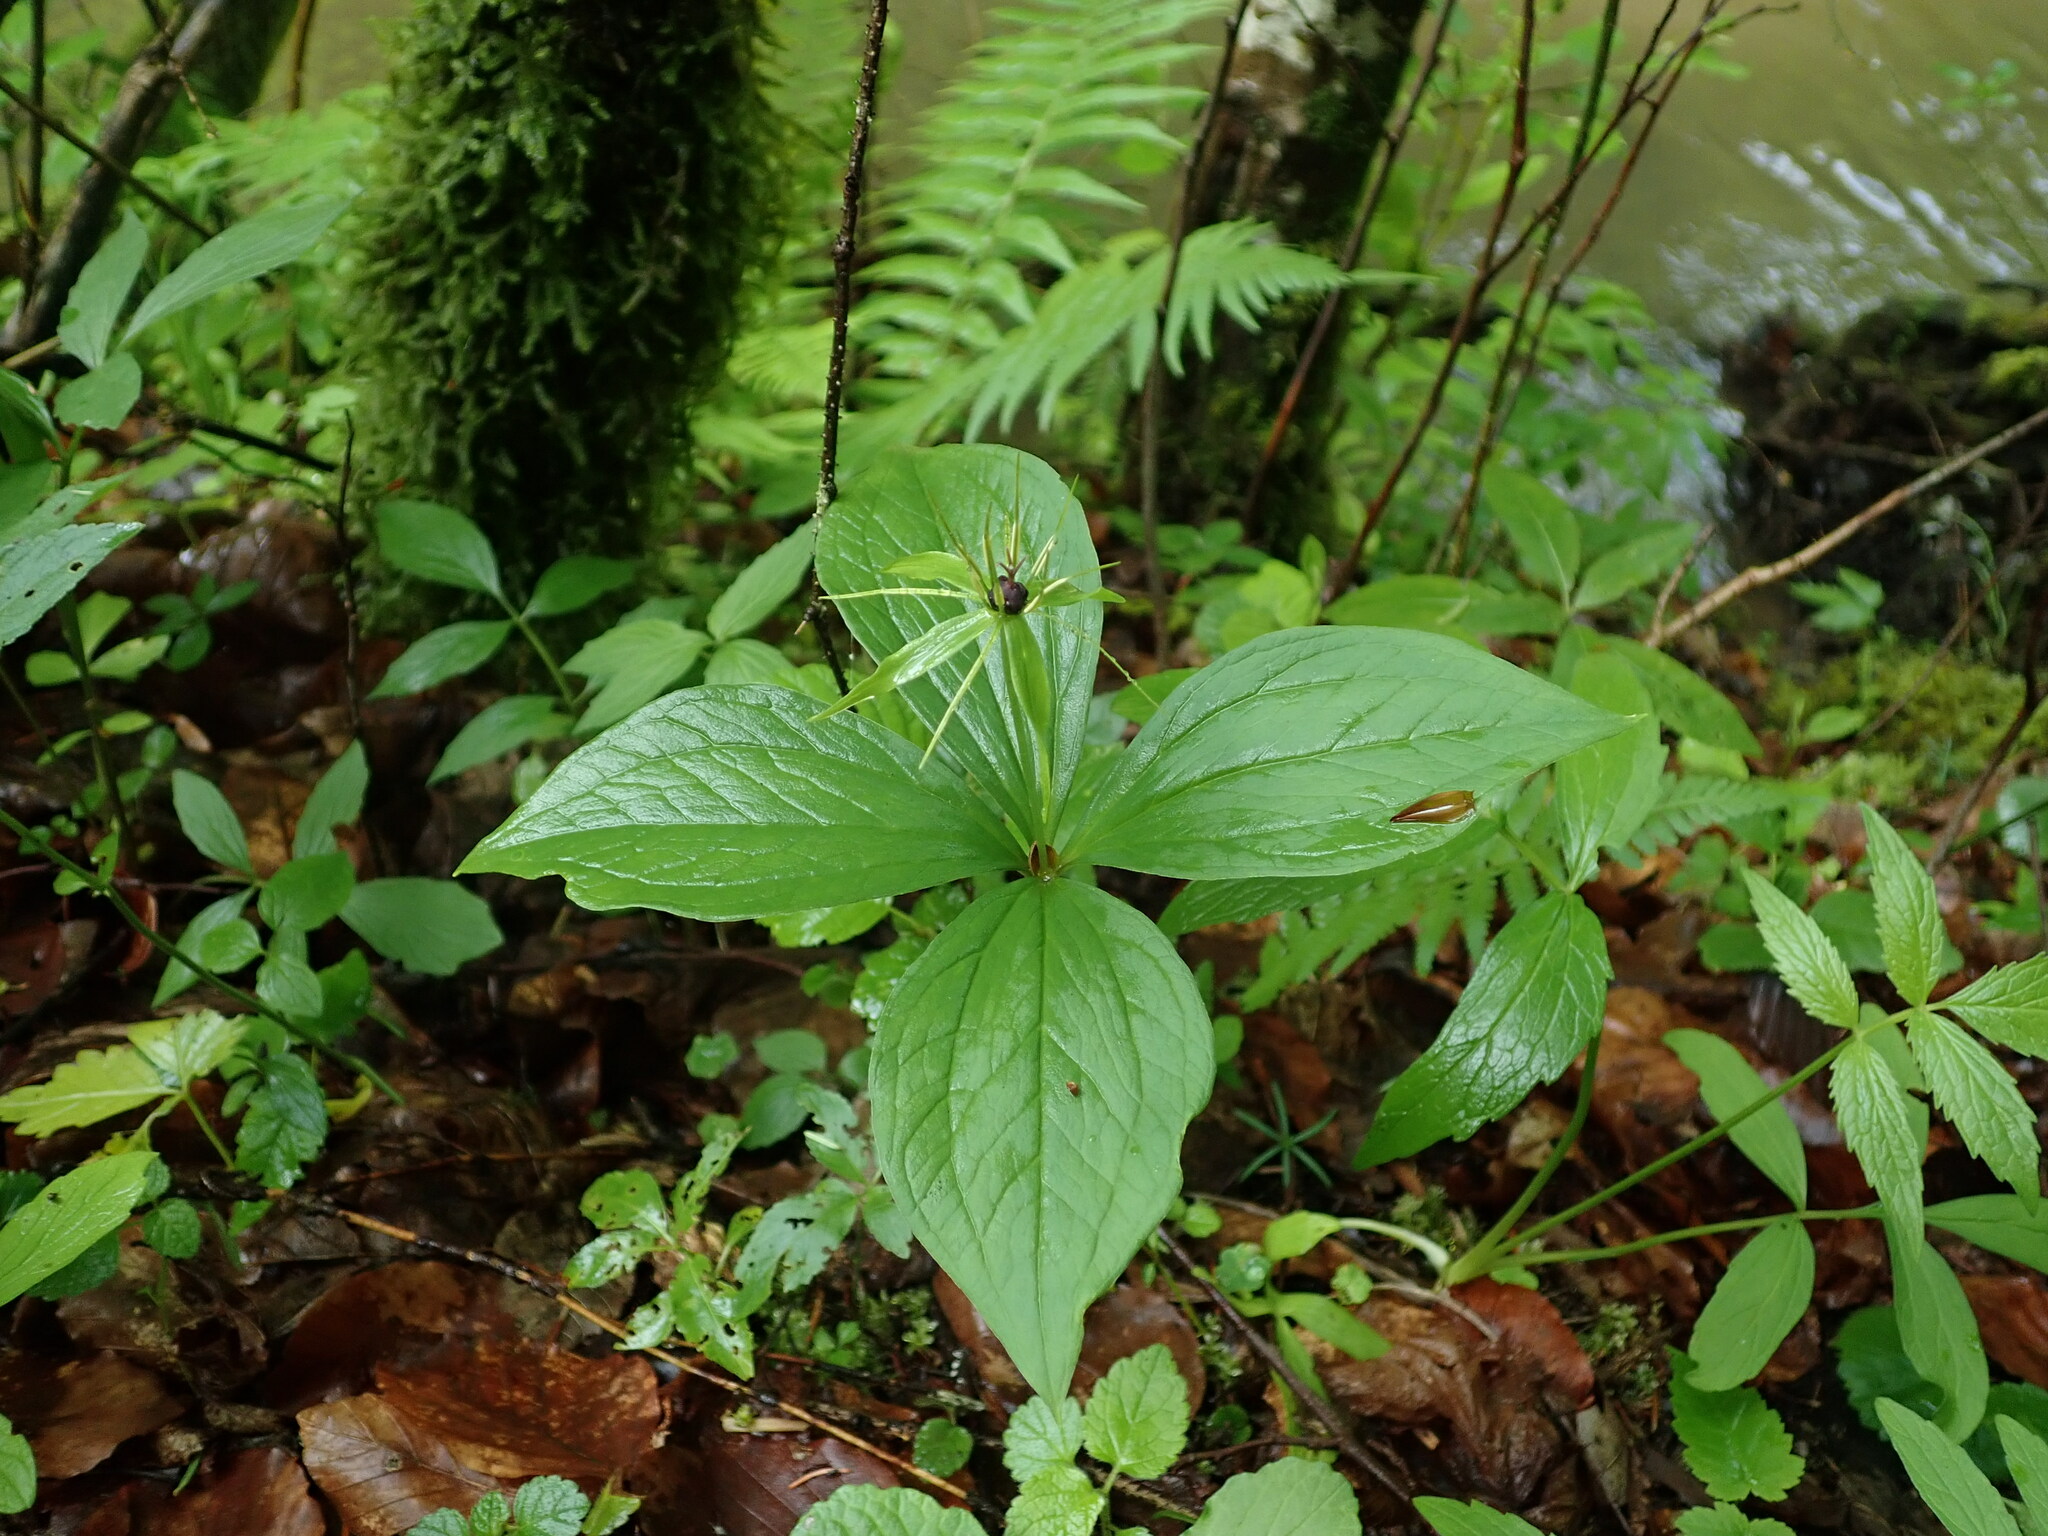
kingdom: Plantae
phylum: Tracheophyta
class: Liliopsida
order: Liliales
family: Melanthiaceae
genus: Paris
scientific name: Paris quadrifolia
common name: Herb-paris
